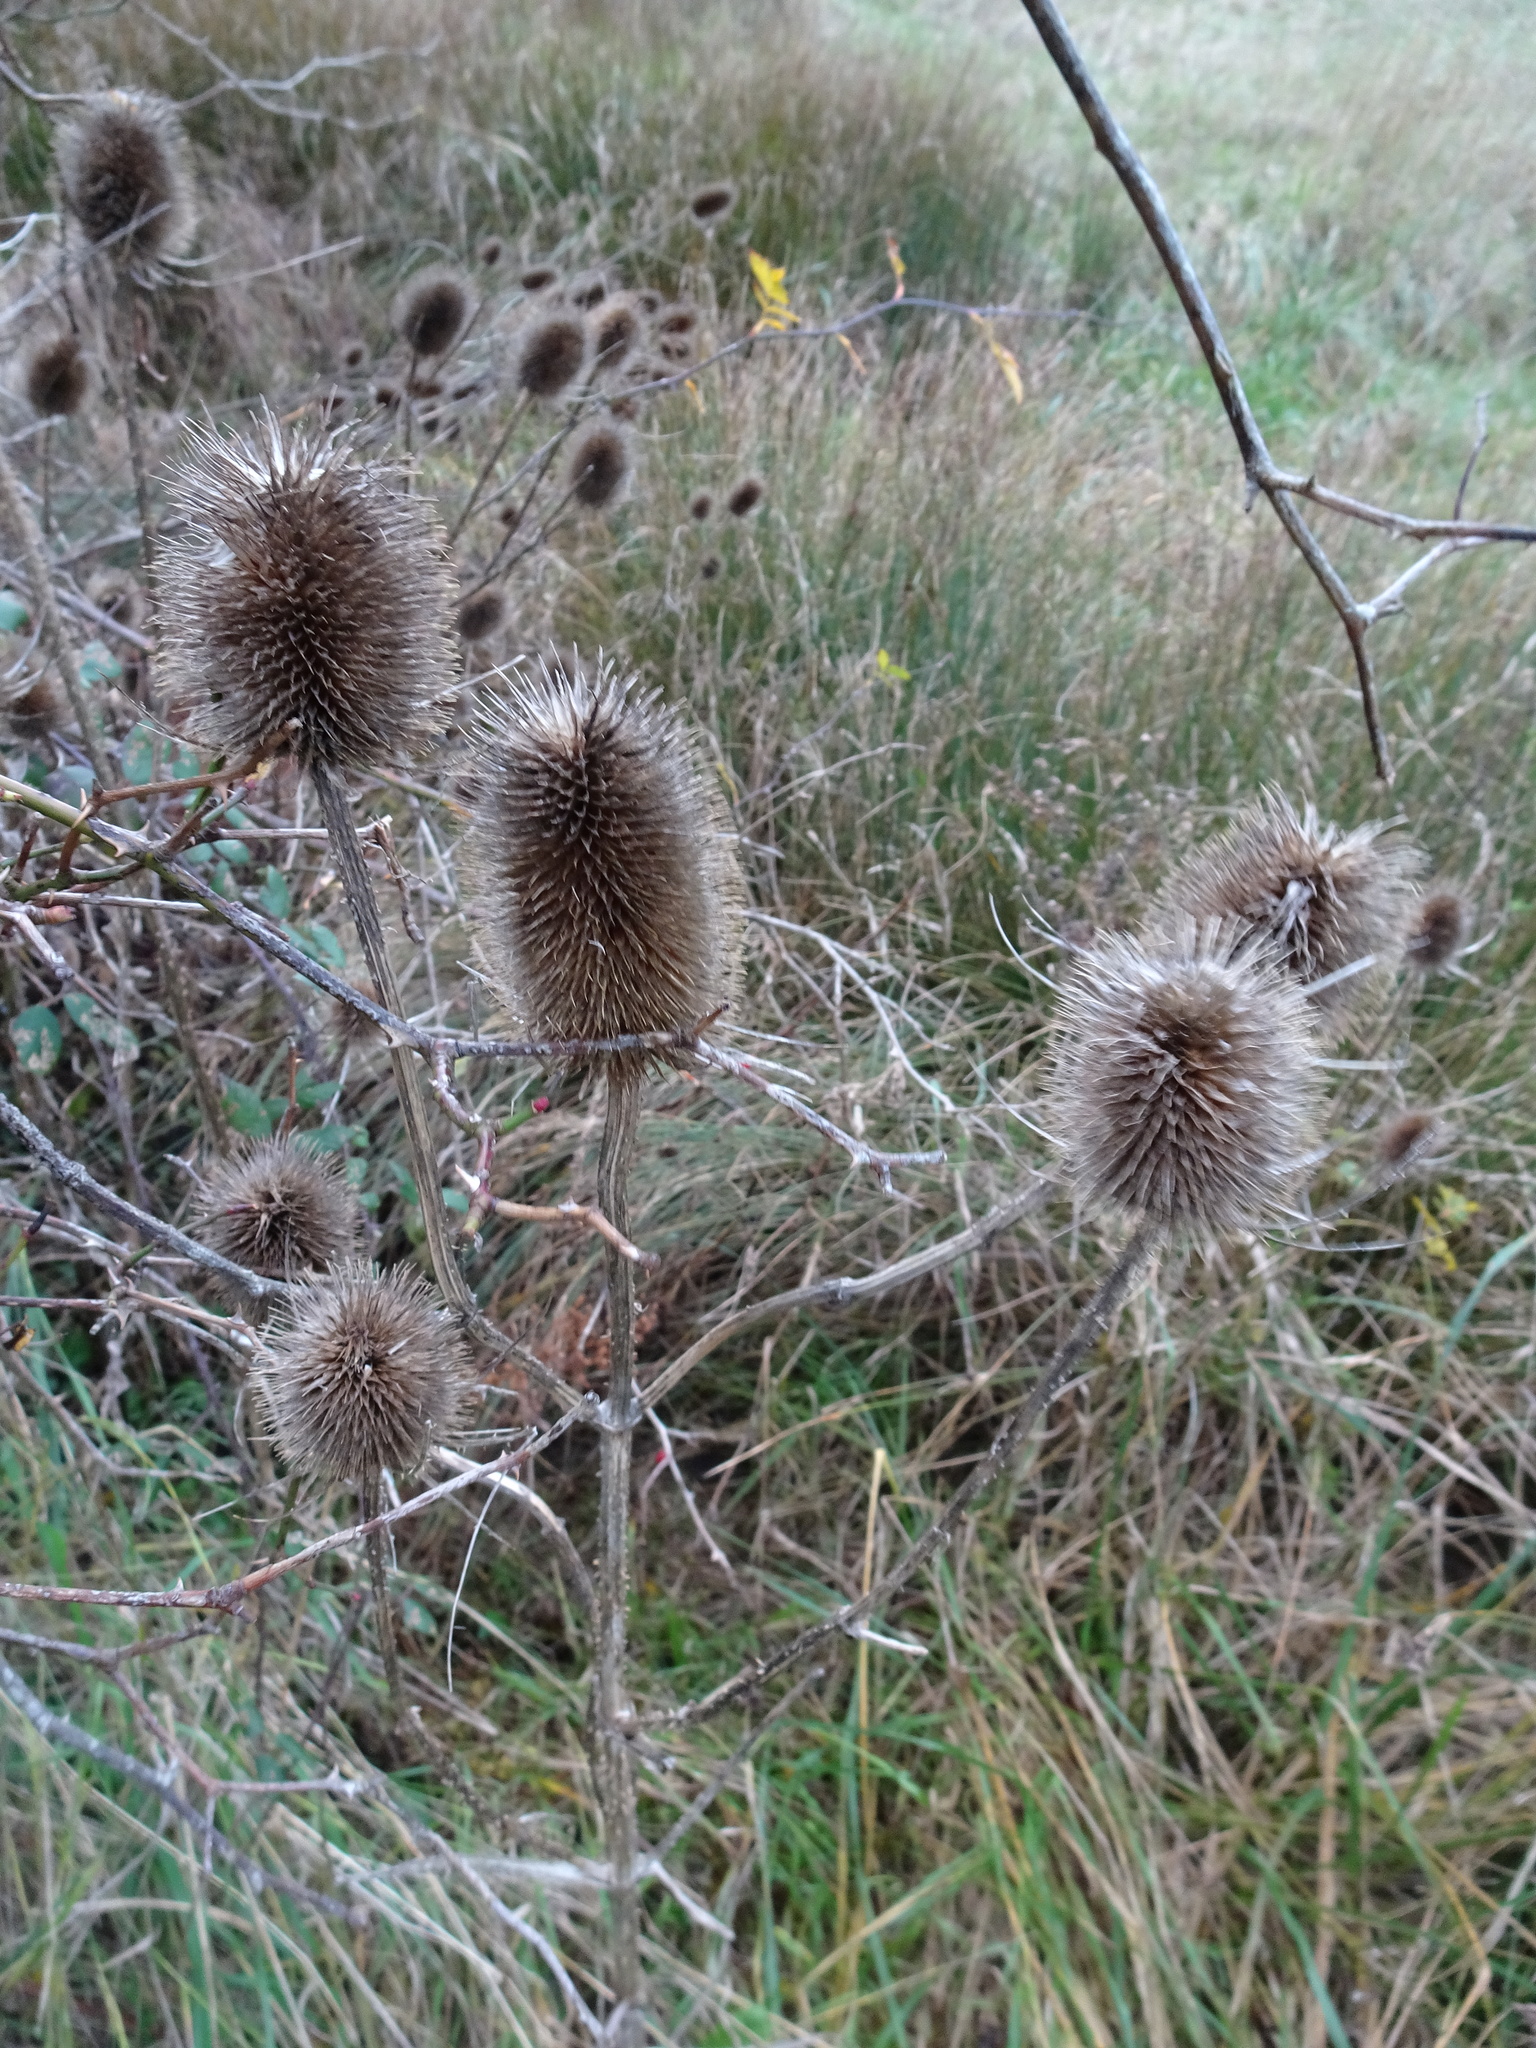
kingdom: Plantae
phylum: Tracheophyta
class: Magnoliopsida
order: Dipsacales
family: Caprifoliaceae
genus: Dipsacus
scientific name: Dipsacus fullonum
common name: Teasel
